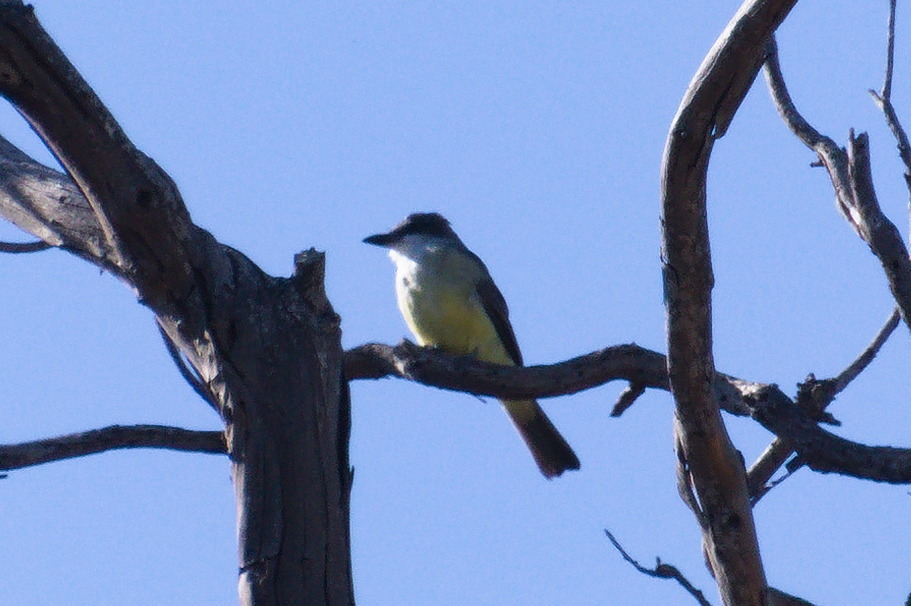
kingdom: Animalia
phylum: Chordata
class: Aves
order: Passeriformes
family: Tyrannidae
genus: Tyrannus
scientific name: Tyrannus crassirostris
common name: Thick-billed kingbird
